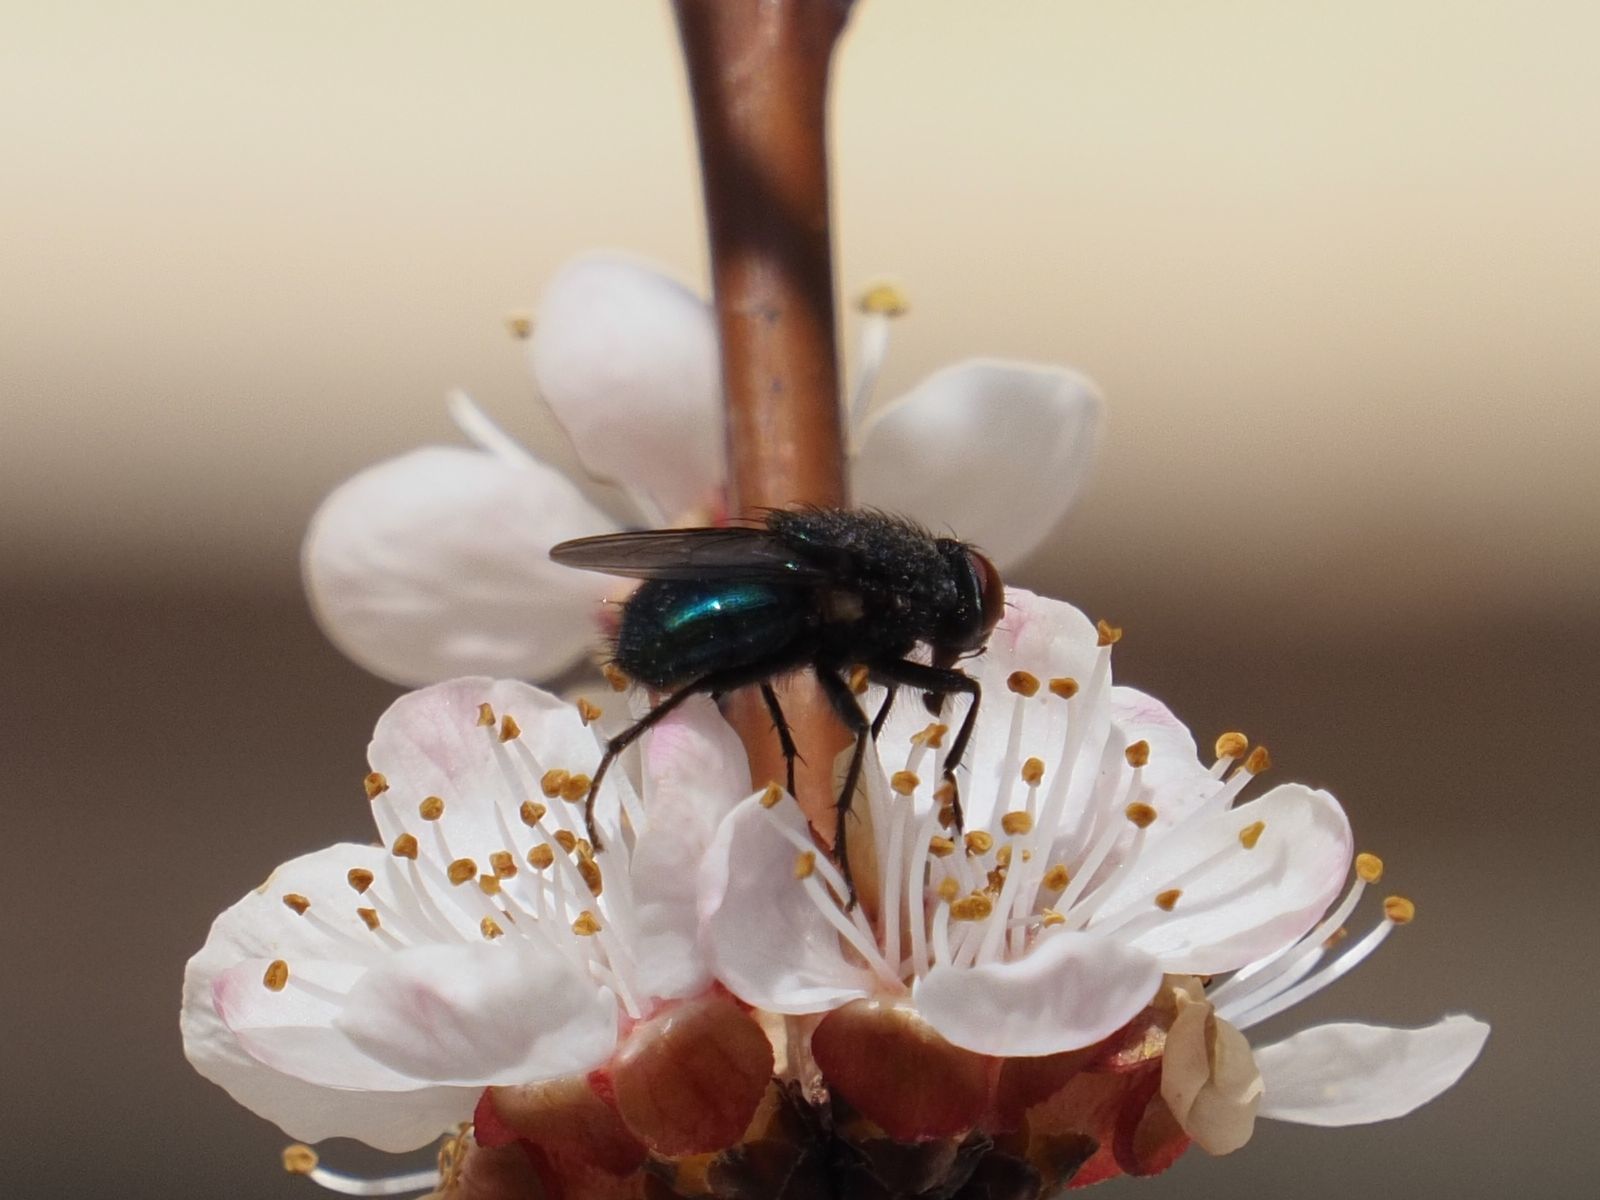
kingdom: Animalia
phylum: Arthropoda
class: Insecta
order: Diptera
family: Calliphoridae
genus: Protocalliphora
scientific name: Protocalliphora azurea
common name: Bird blowfly
